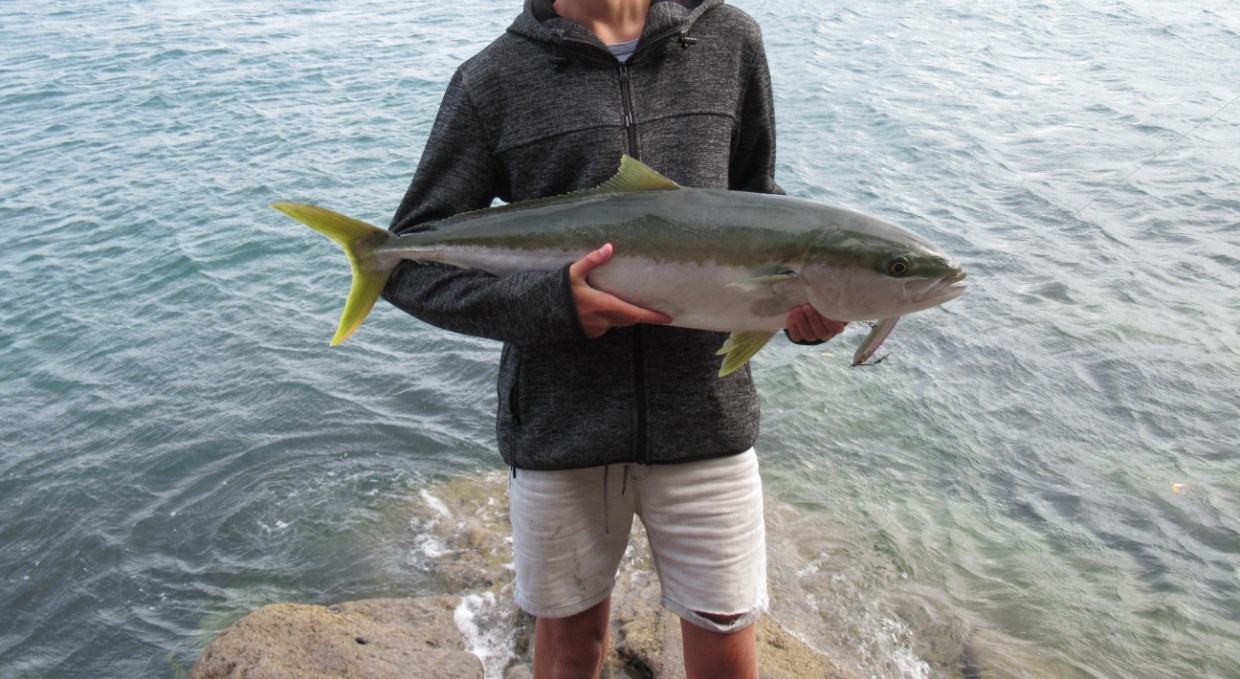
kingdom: Animalia
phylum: Chordata
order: Perciformes
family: Carangidae
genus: Seriola
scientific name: Seriola lalandi
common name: Yellowtail kingfish
